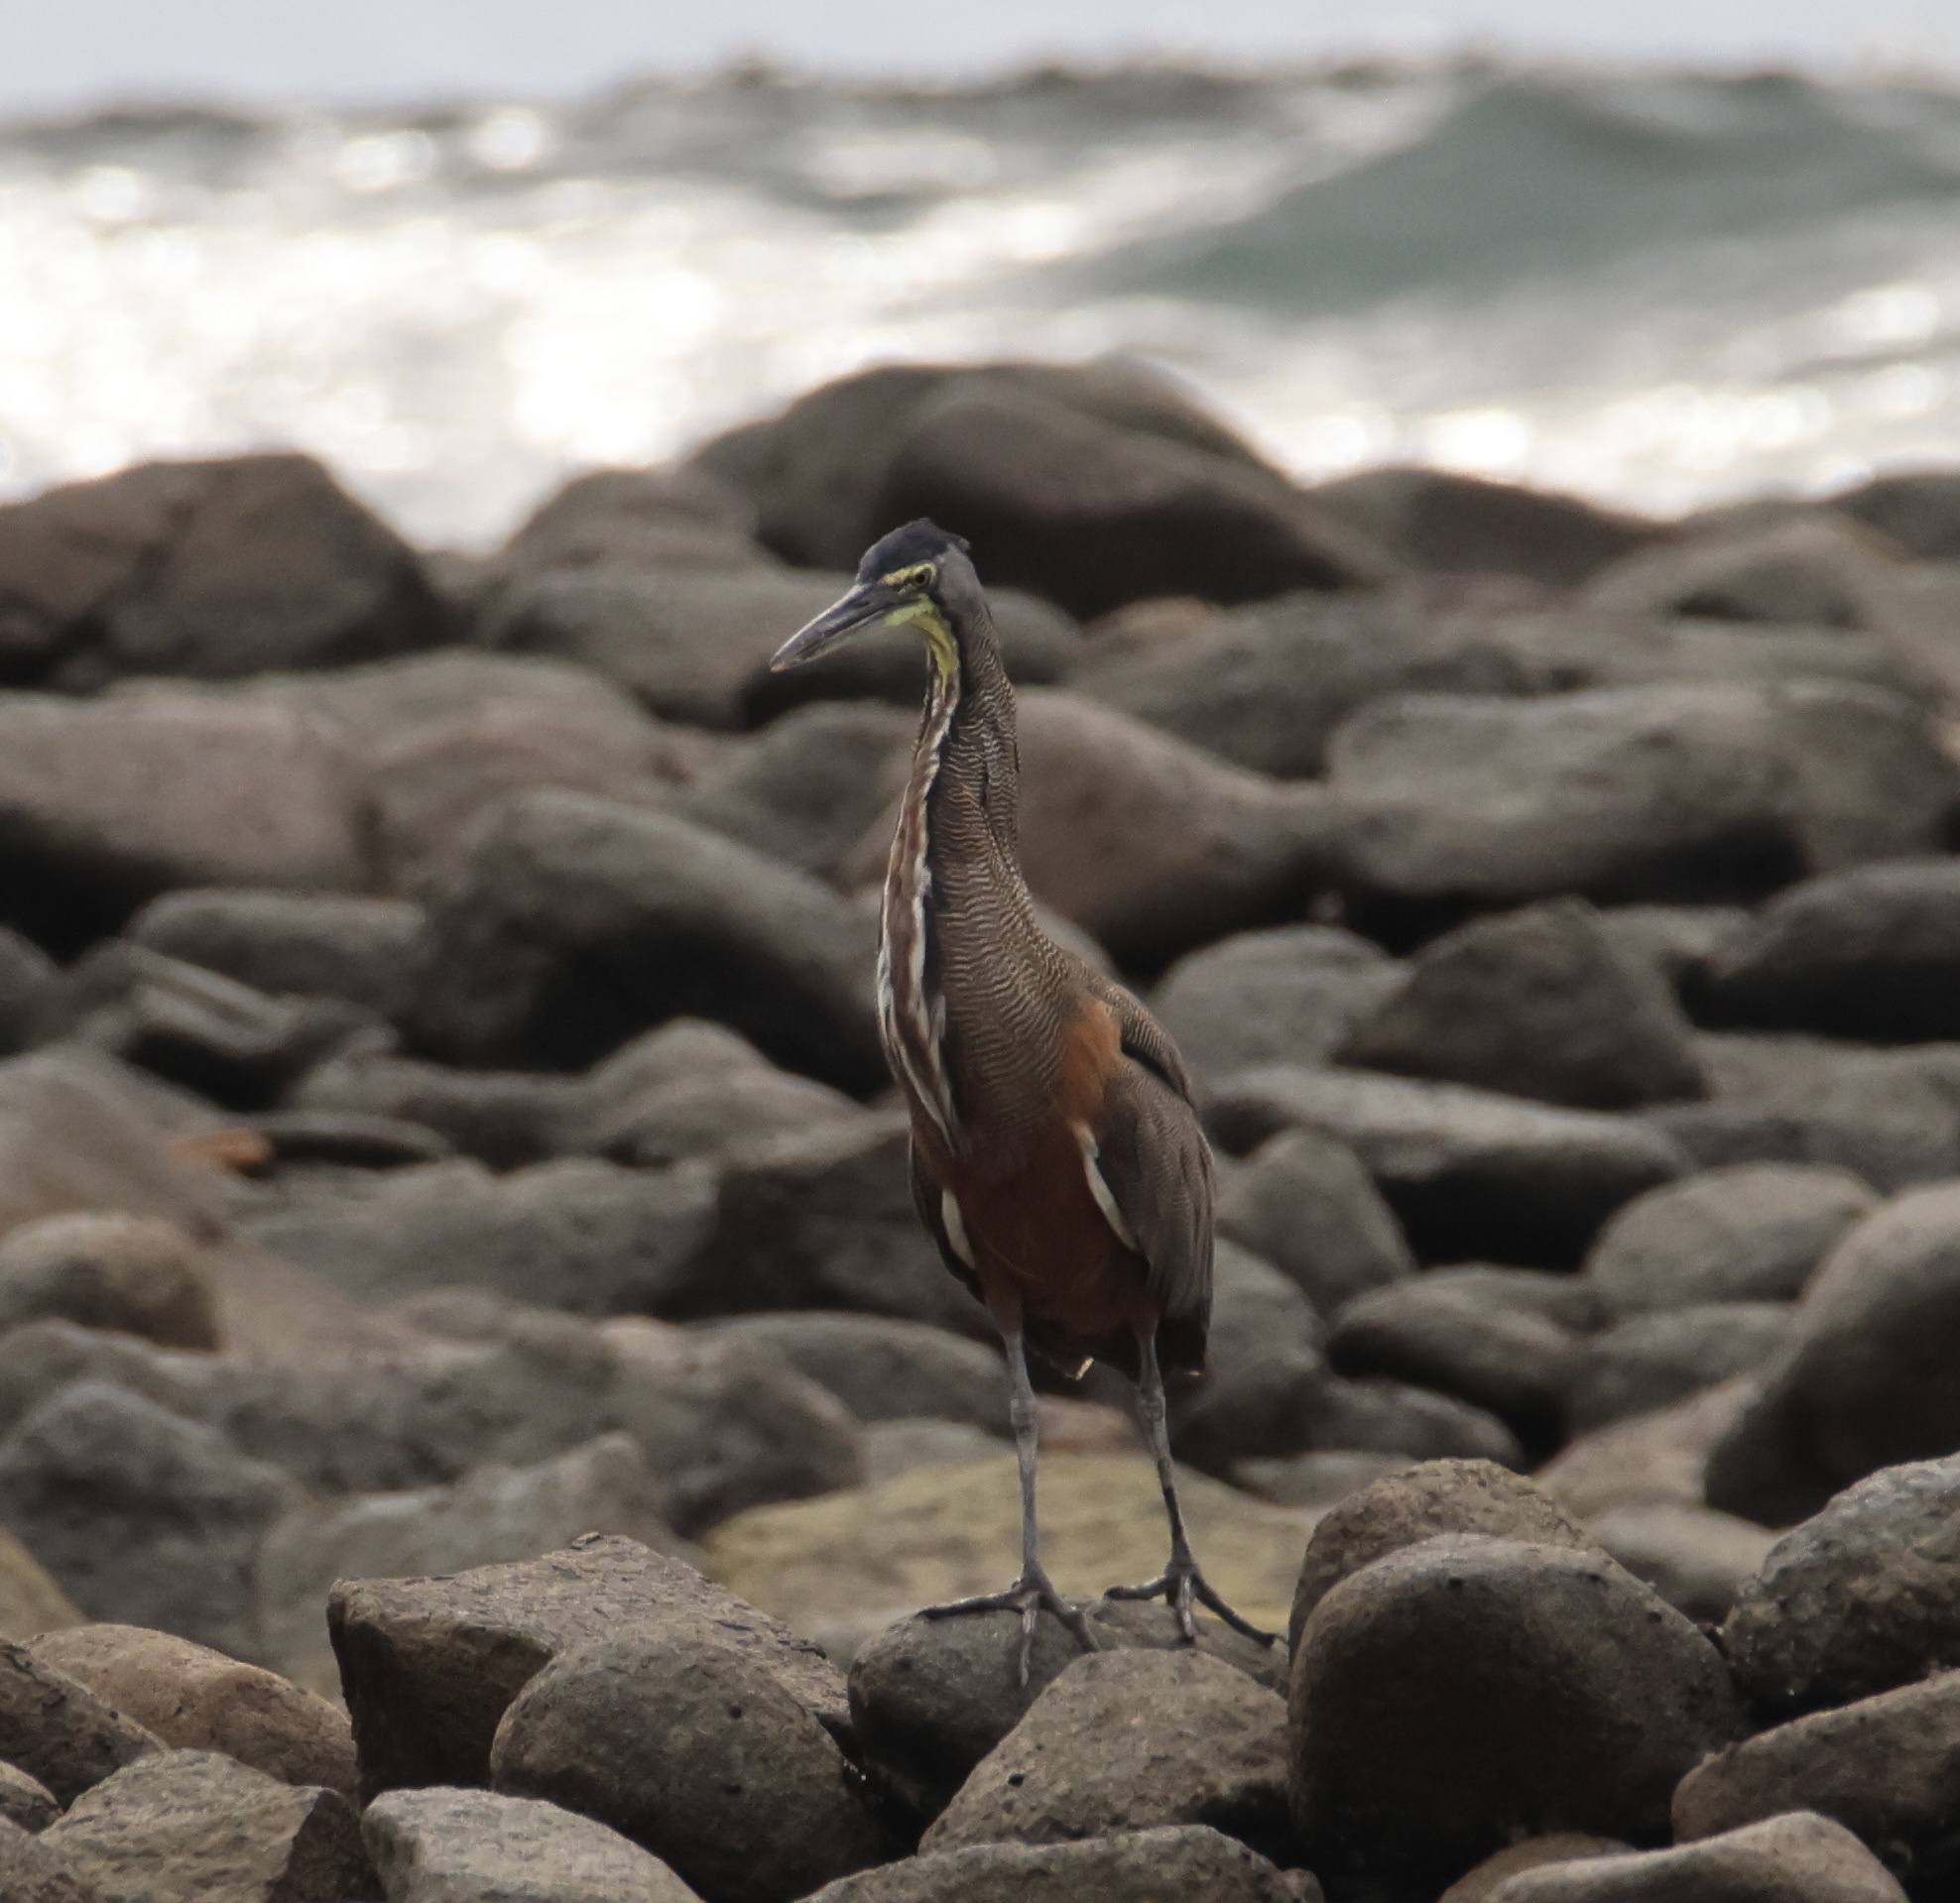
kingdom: Animalia
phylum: Chordata
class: Aves
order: Pelecaniformes
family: Ardeidae
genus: Tigrisoma
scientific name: Tigrisoma mexicanum
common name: Bare-throated tiger-heron
